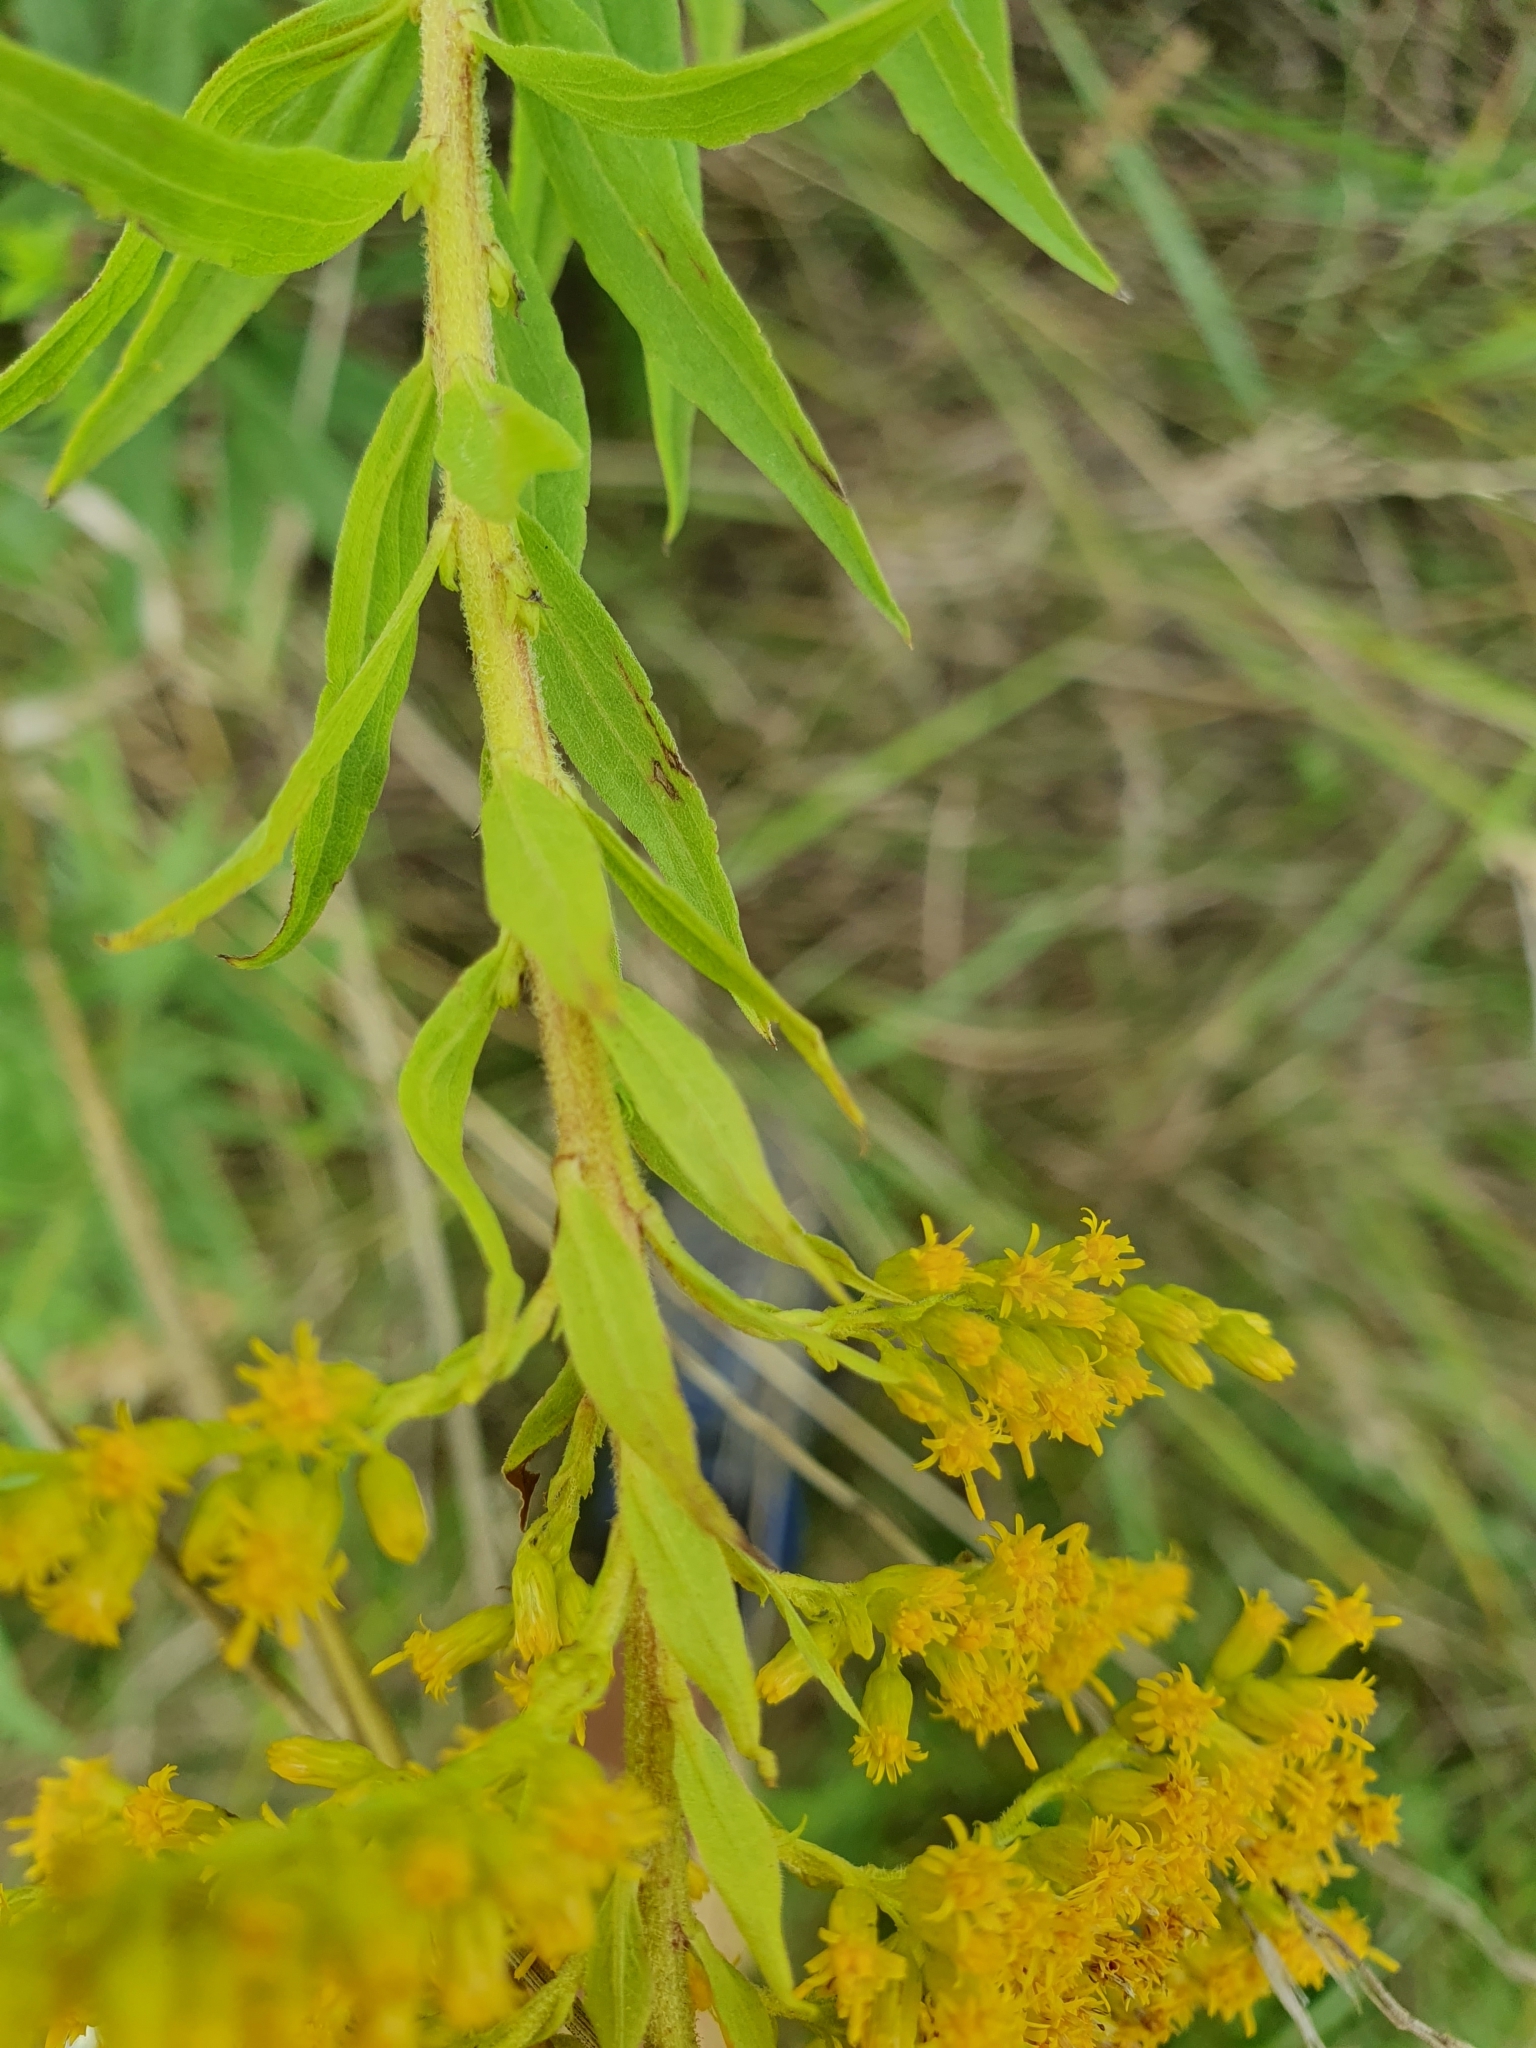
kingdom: Plantae
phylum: Tracheophyta
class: Magnoliopsida
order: Asterales
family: Asteraceae
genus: Solidago
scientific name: Solidago canadensis
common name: Canada goldenrod
